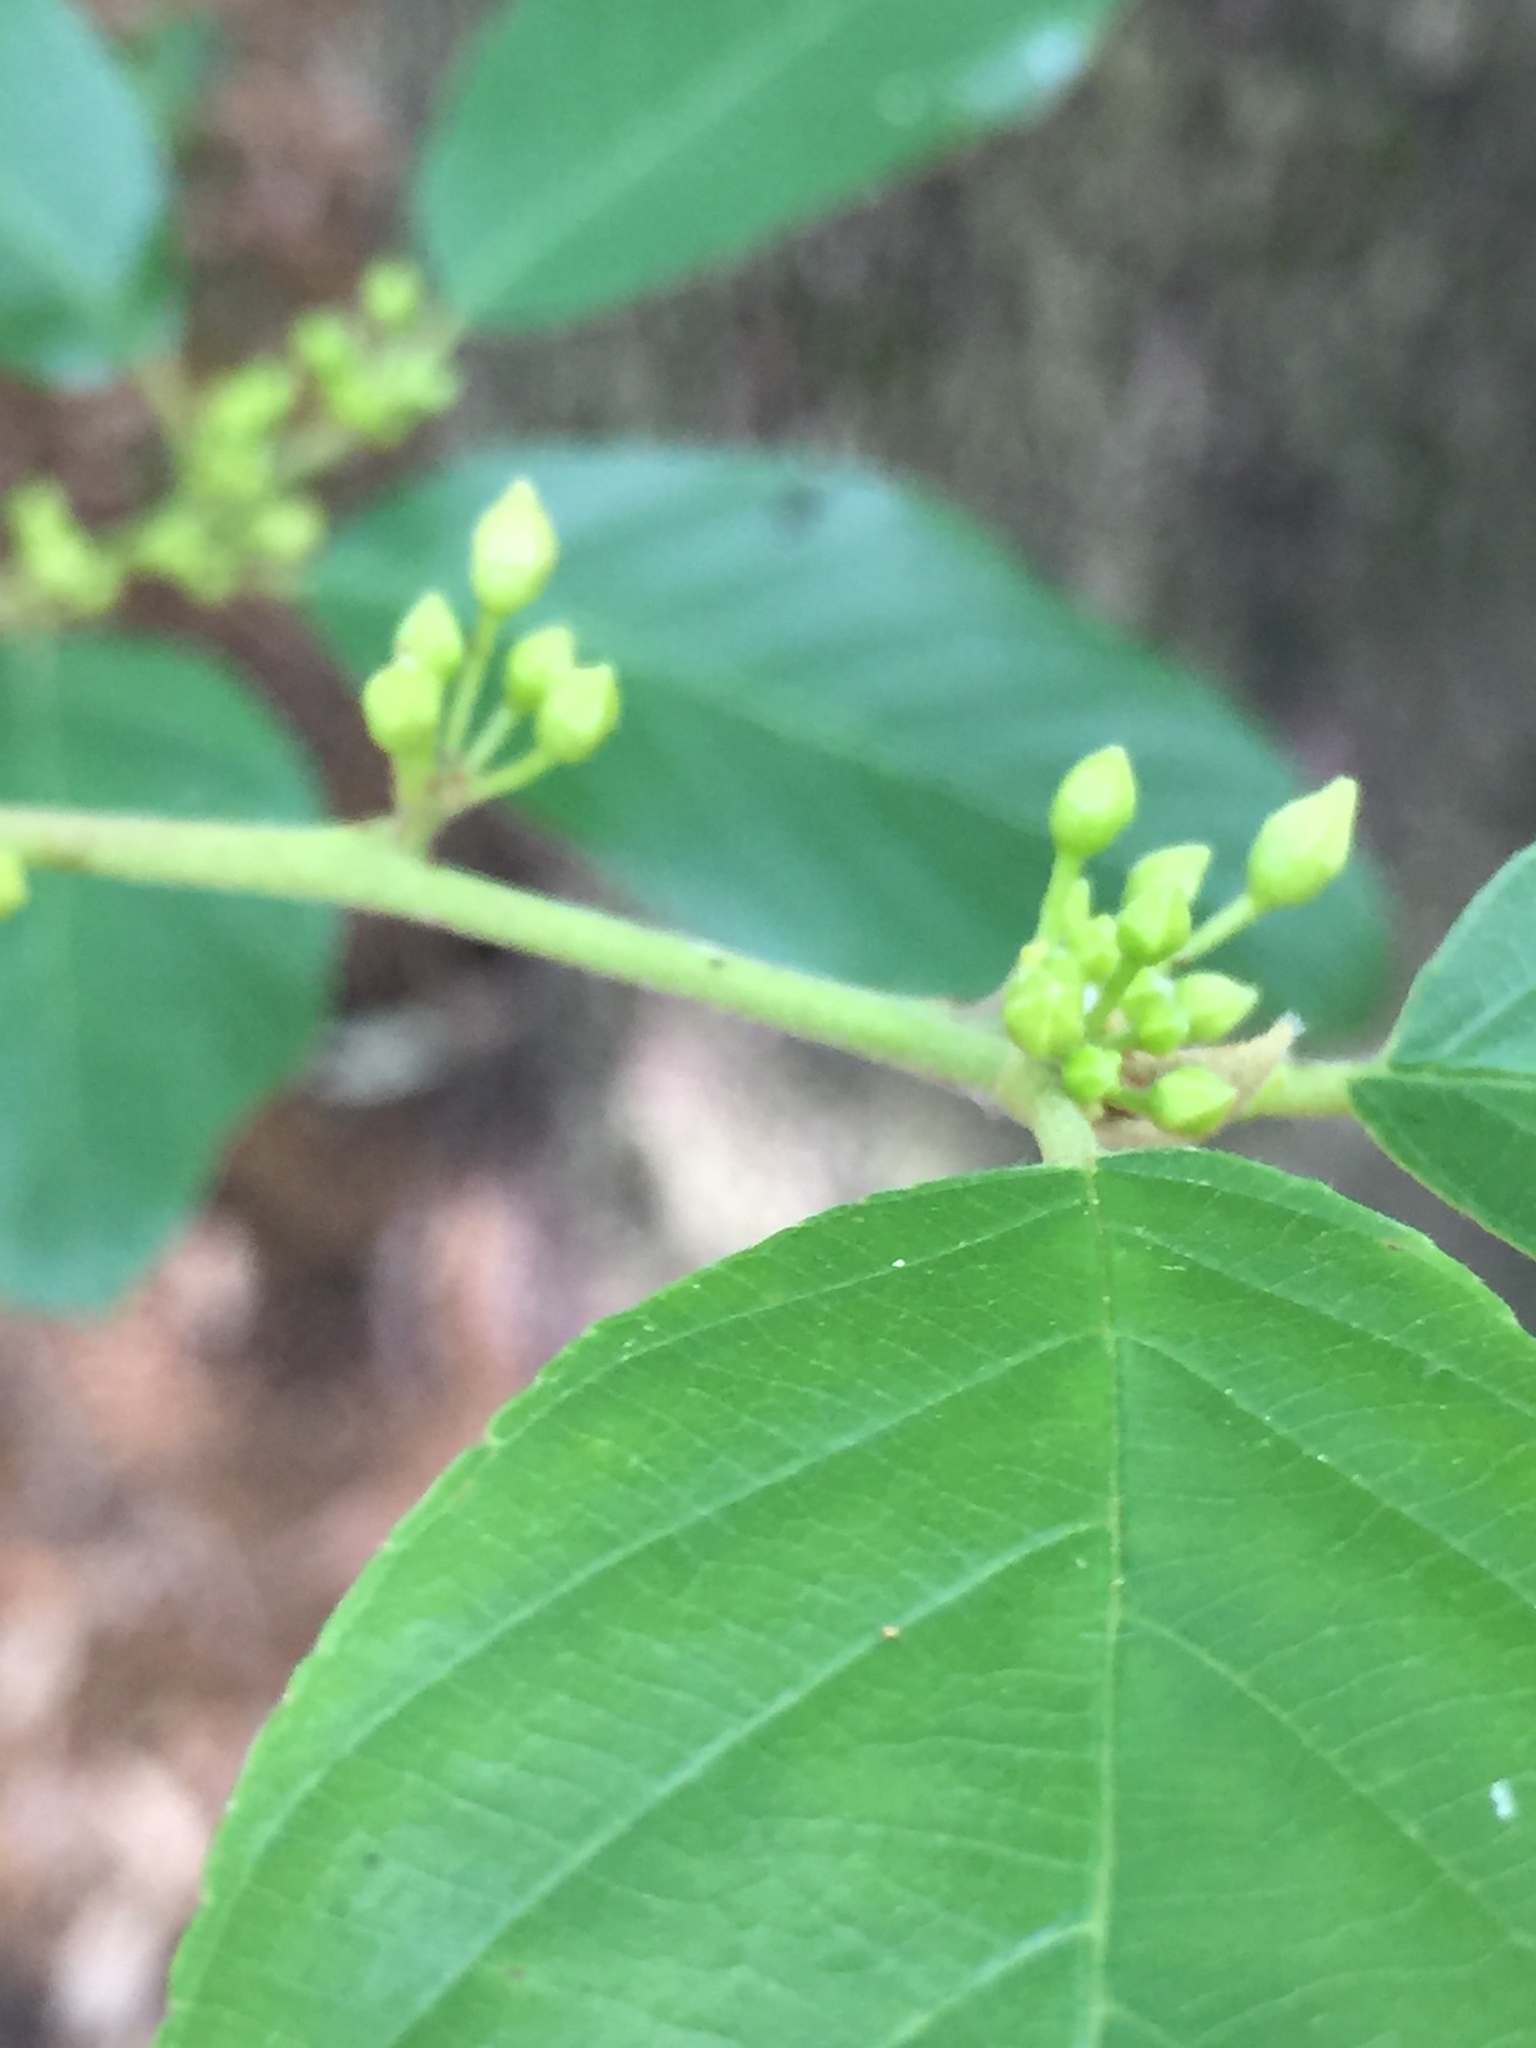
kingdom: Plantae
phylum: Tracheophyta
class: Magnoliopsida
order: Rosales
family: Rhamnaceae
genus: Frangula
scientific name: Frangula caroliniana
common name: Carolina buckthorn
